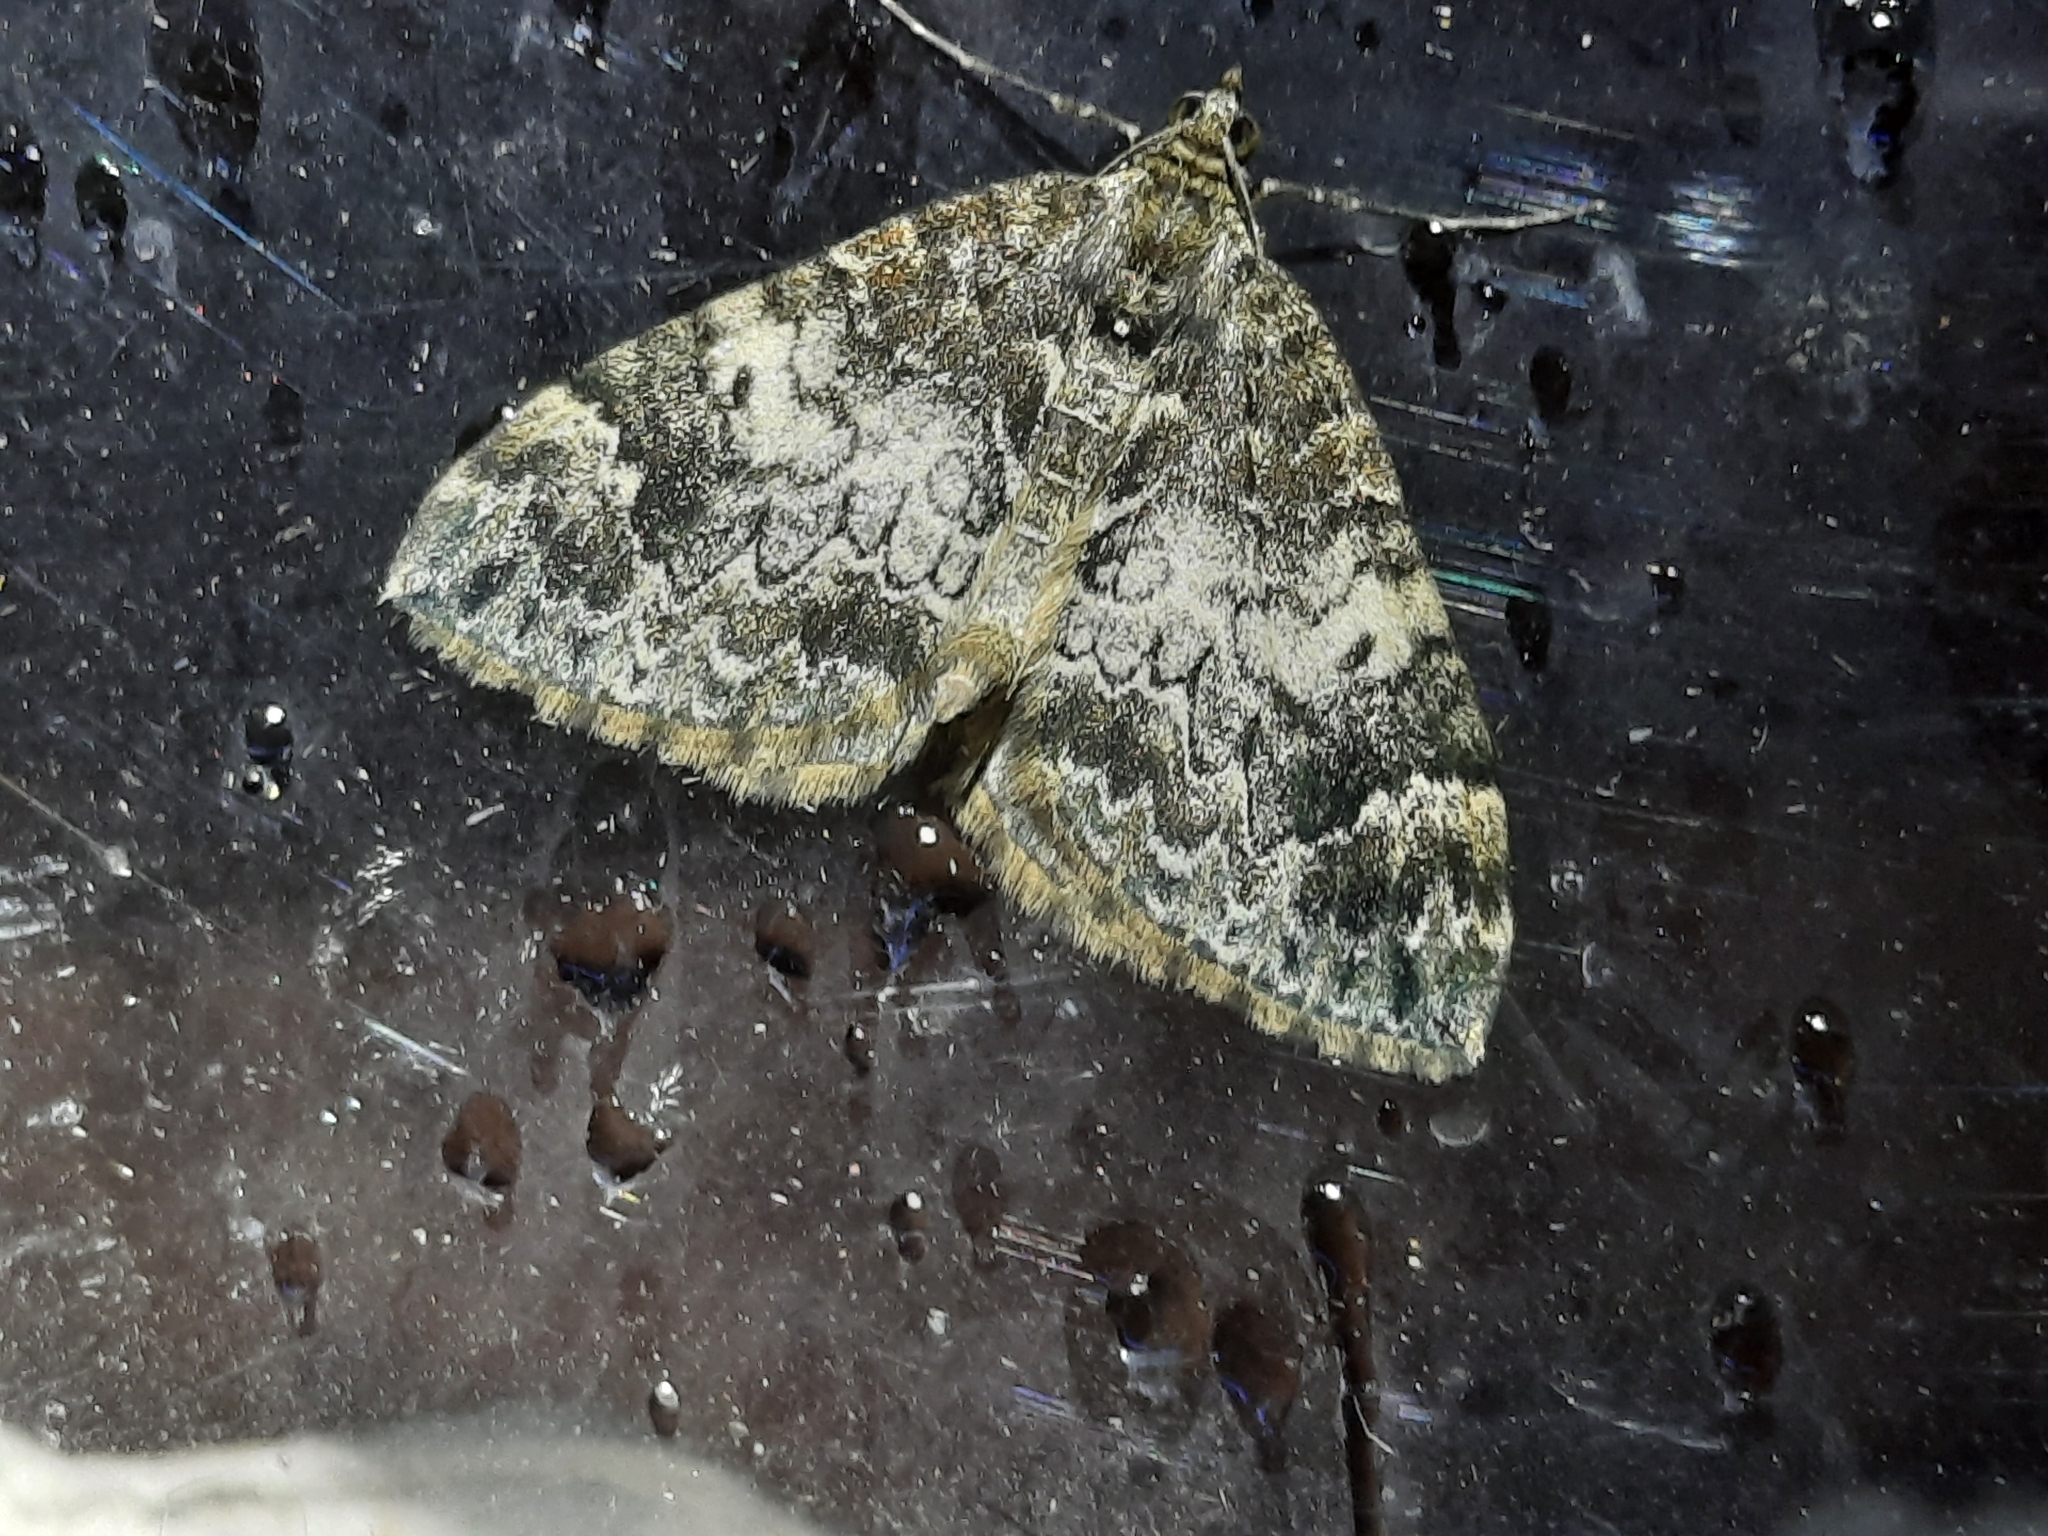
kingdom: Animalia
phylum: Arthropoda
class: Insecta
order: Lepidoptera
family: Geometridae
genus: Dysstroma
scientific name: Dysstroma truncata
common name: Common marbled carpet
